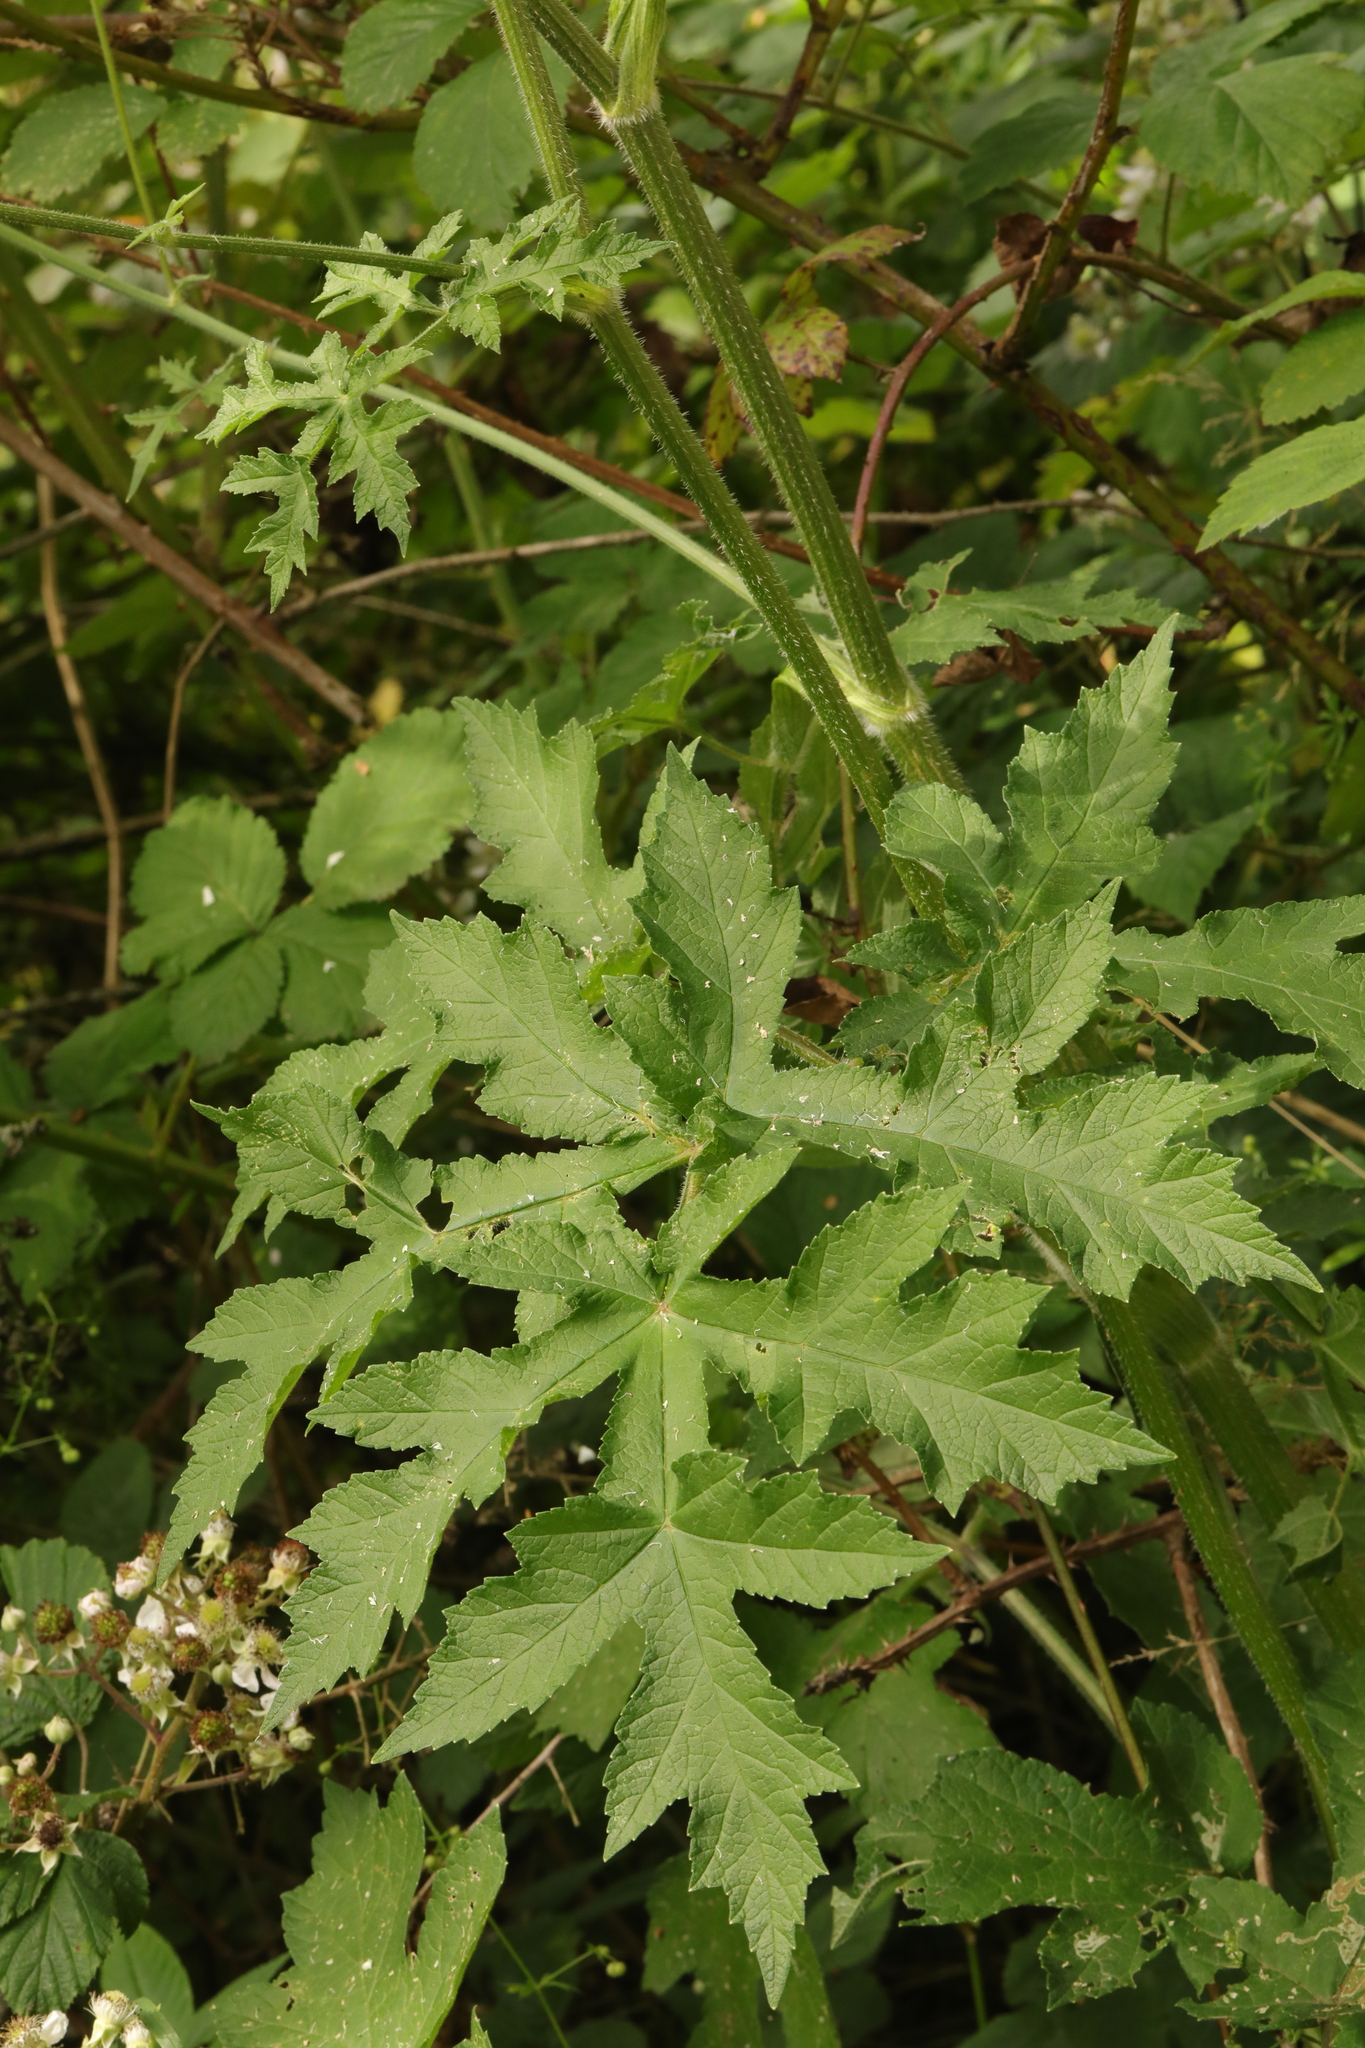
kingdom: Plantae
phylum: Tracheophyta
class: Magnoliopsida
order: Apiales
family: Apiaceae
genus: Heracleum
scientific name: Heracleum sphondylium
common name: Hogweed
